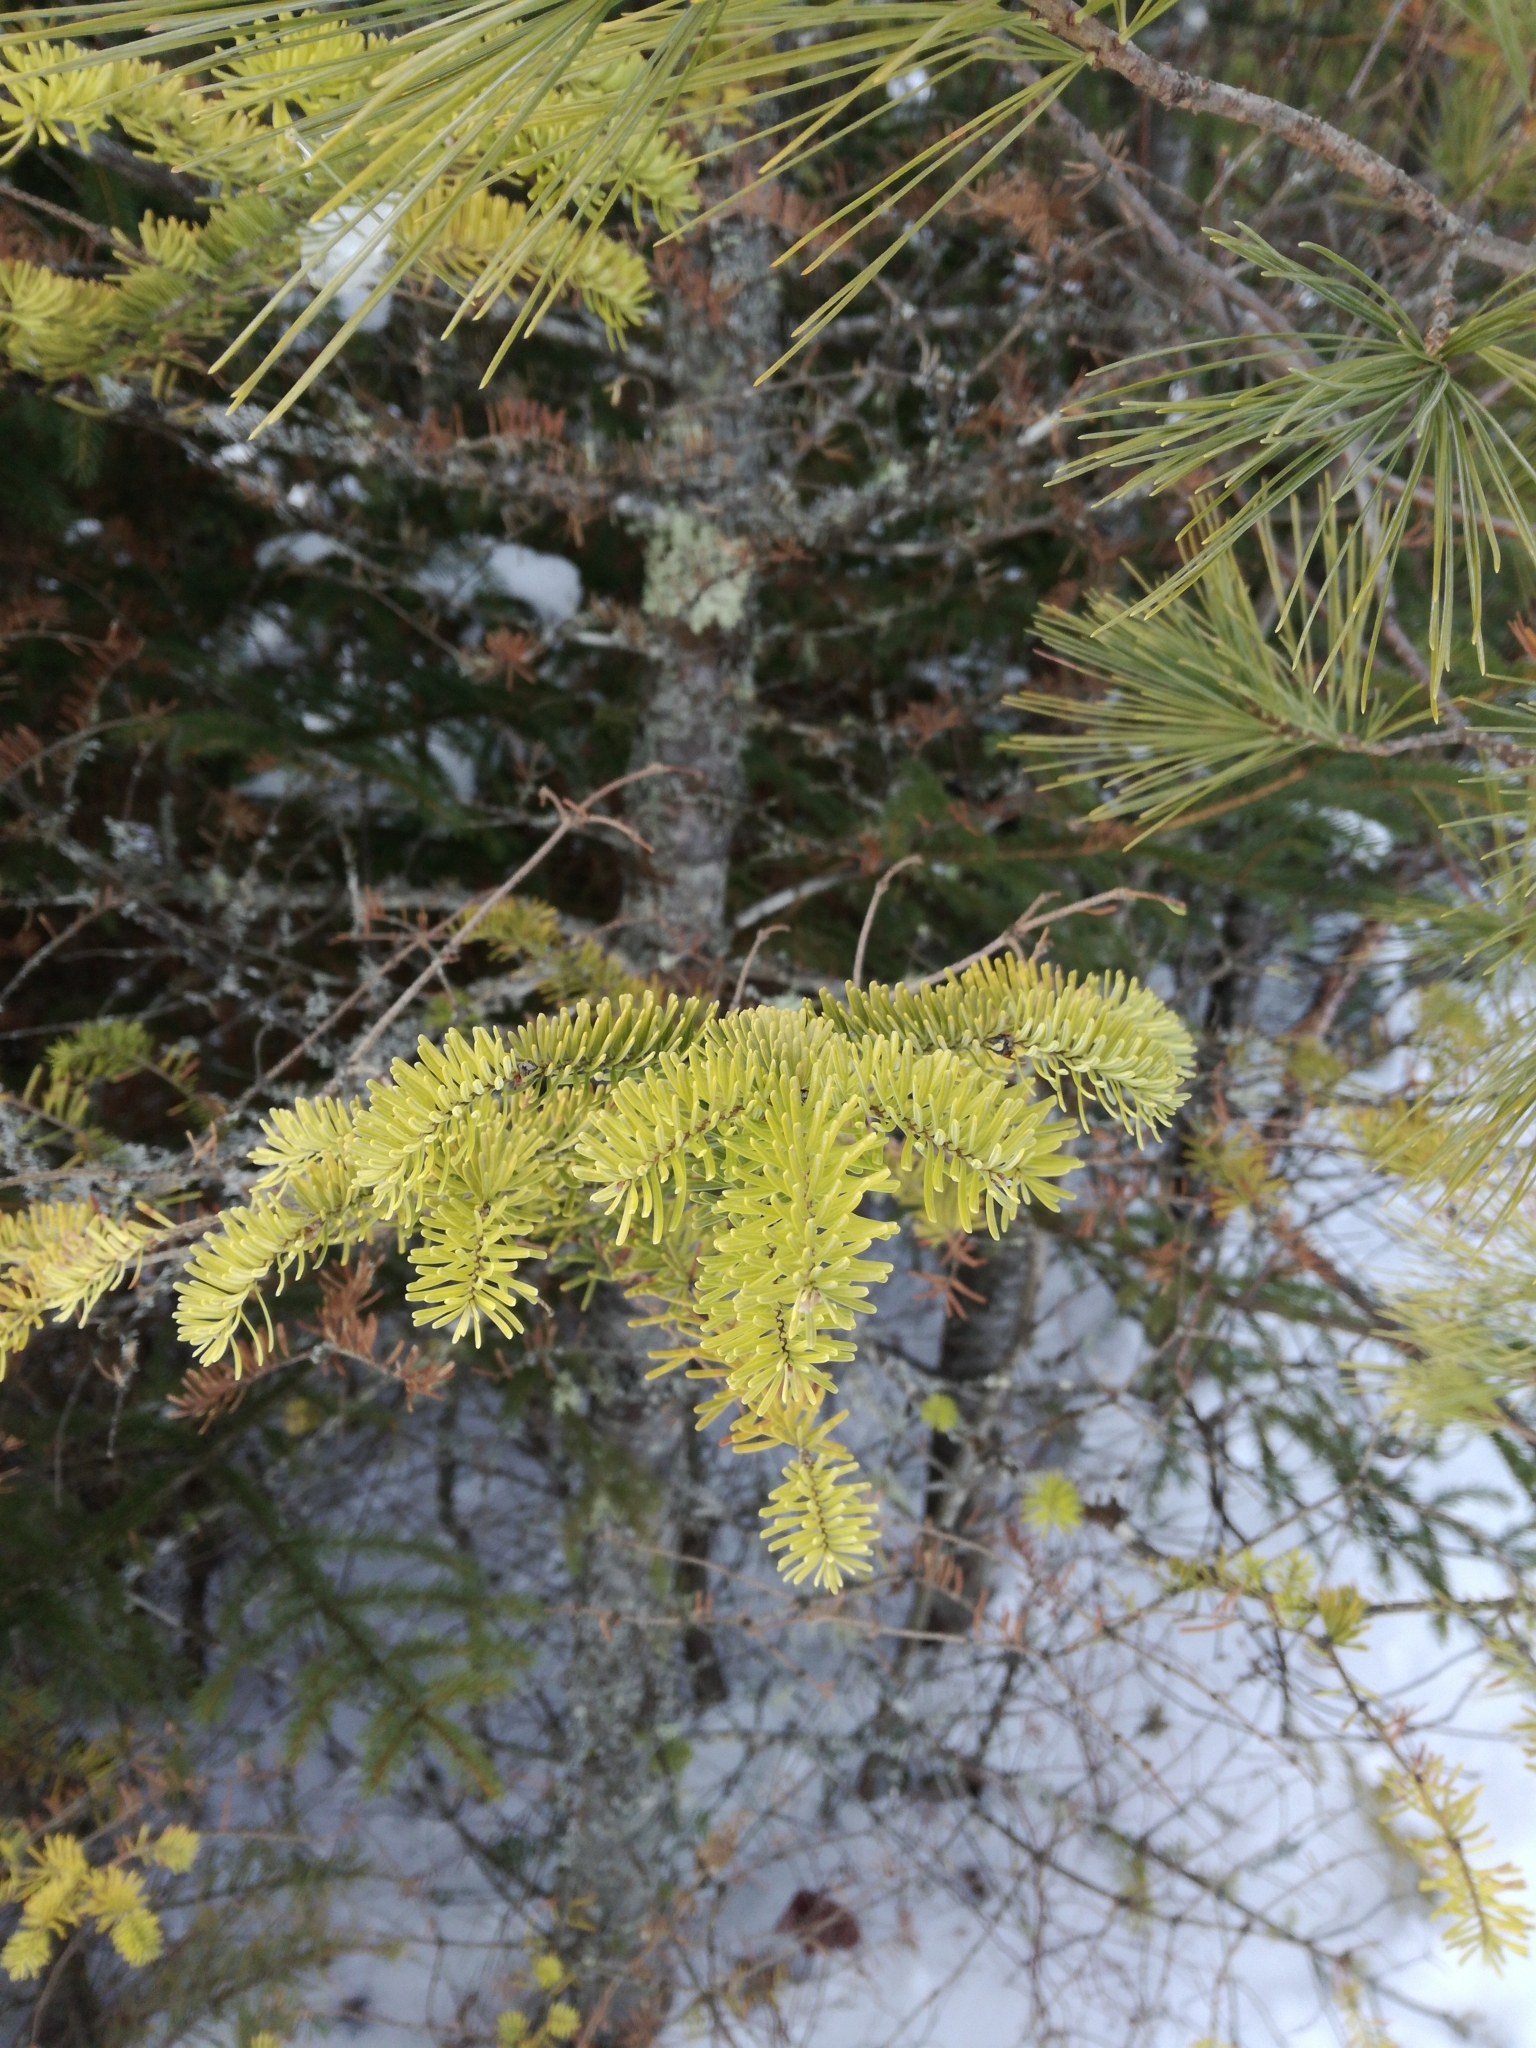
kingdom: Plantae
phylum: Tracheophyta
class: Pinopsida
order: Pinales
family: Pinaceae
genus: Abies
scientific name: Abies balsamea
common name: Balsam fir
